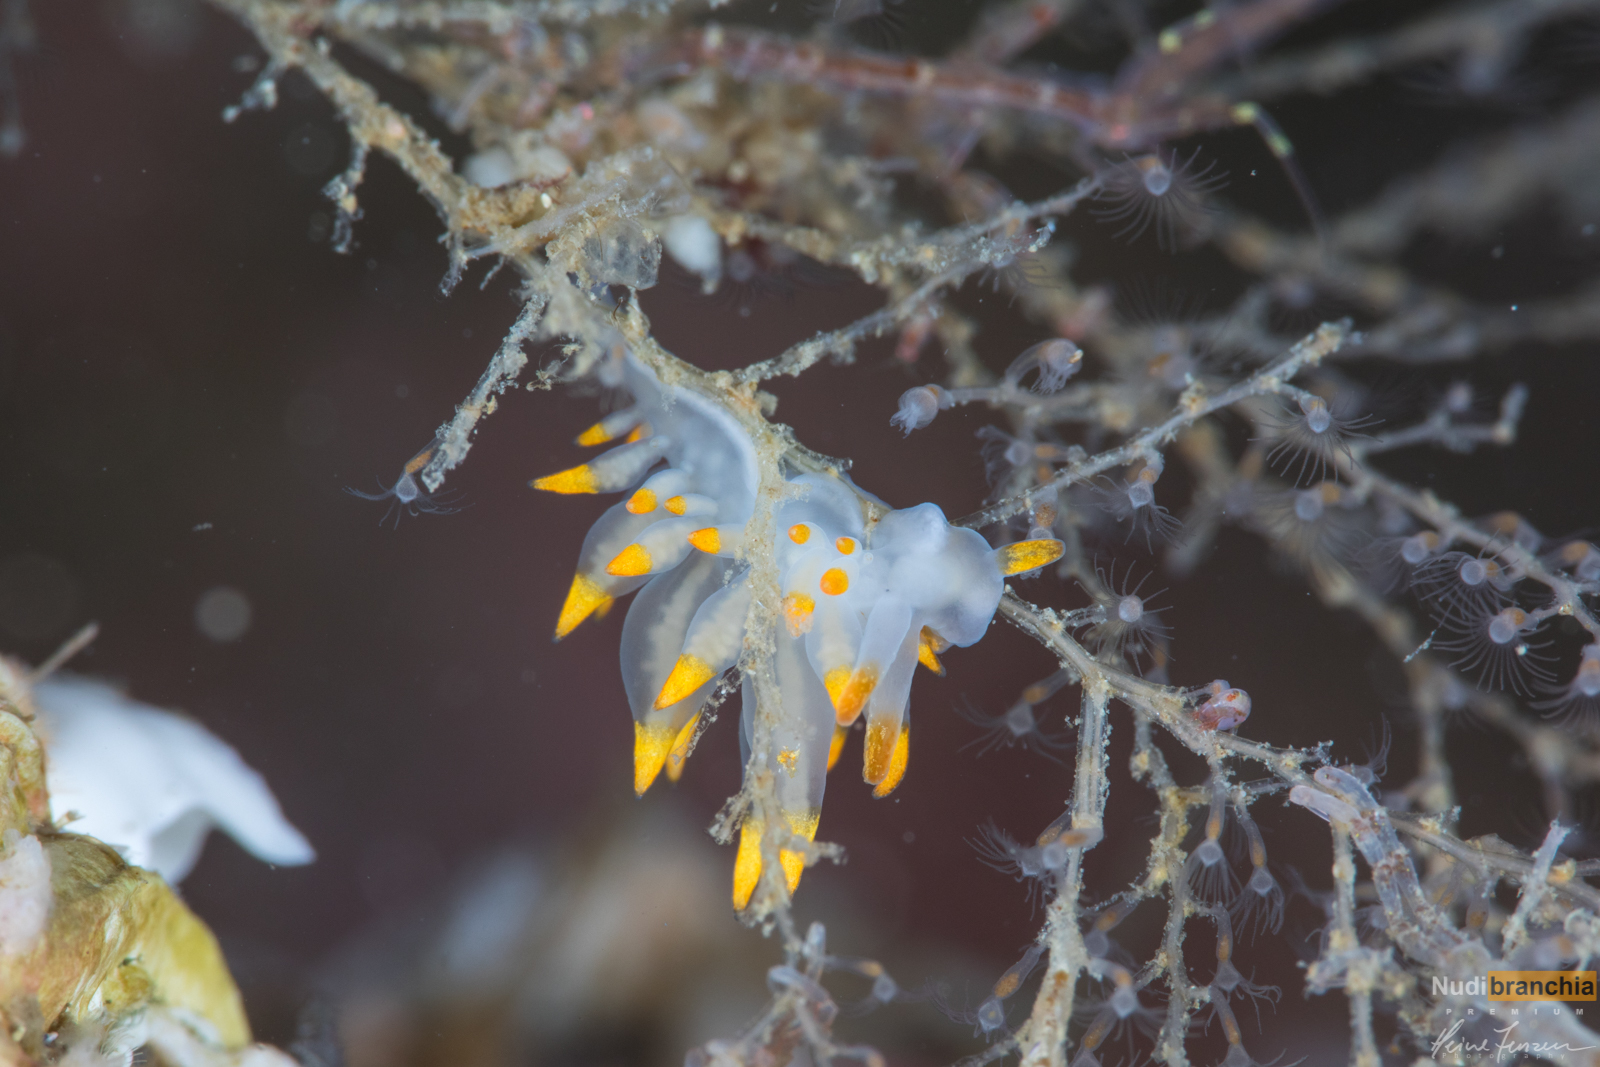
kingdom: Animalia
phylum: Mollusca
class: Gastropoda
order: Nudibranchia
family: Eubranchidae
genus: Amphorina
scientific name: Amphorina farrani
